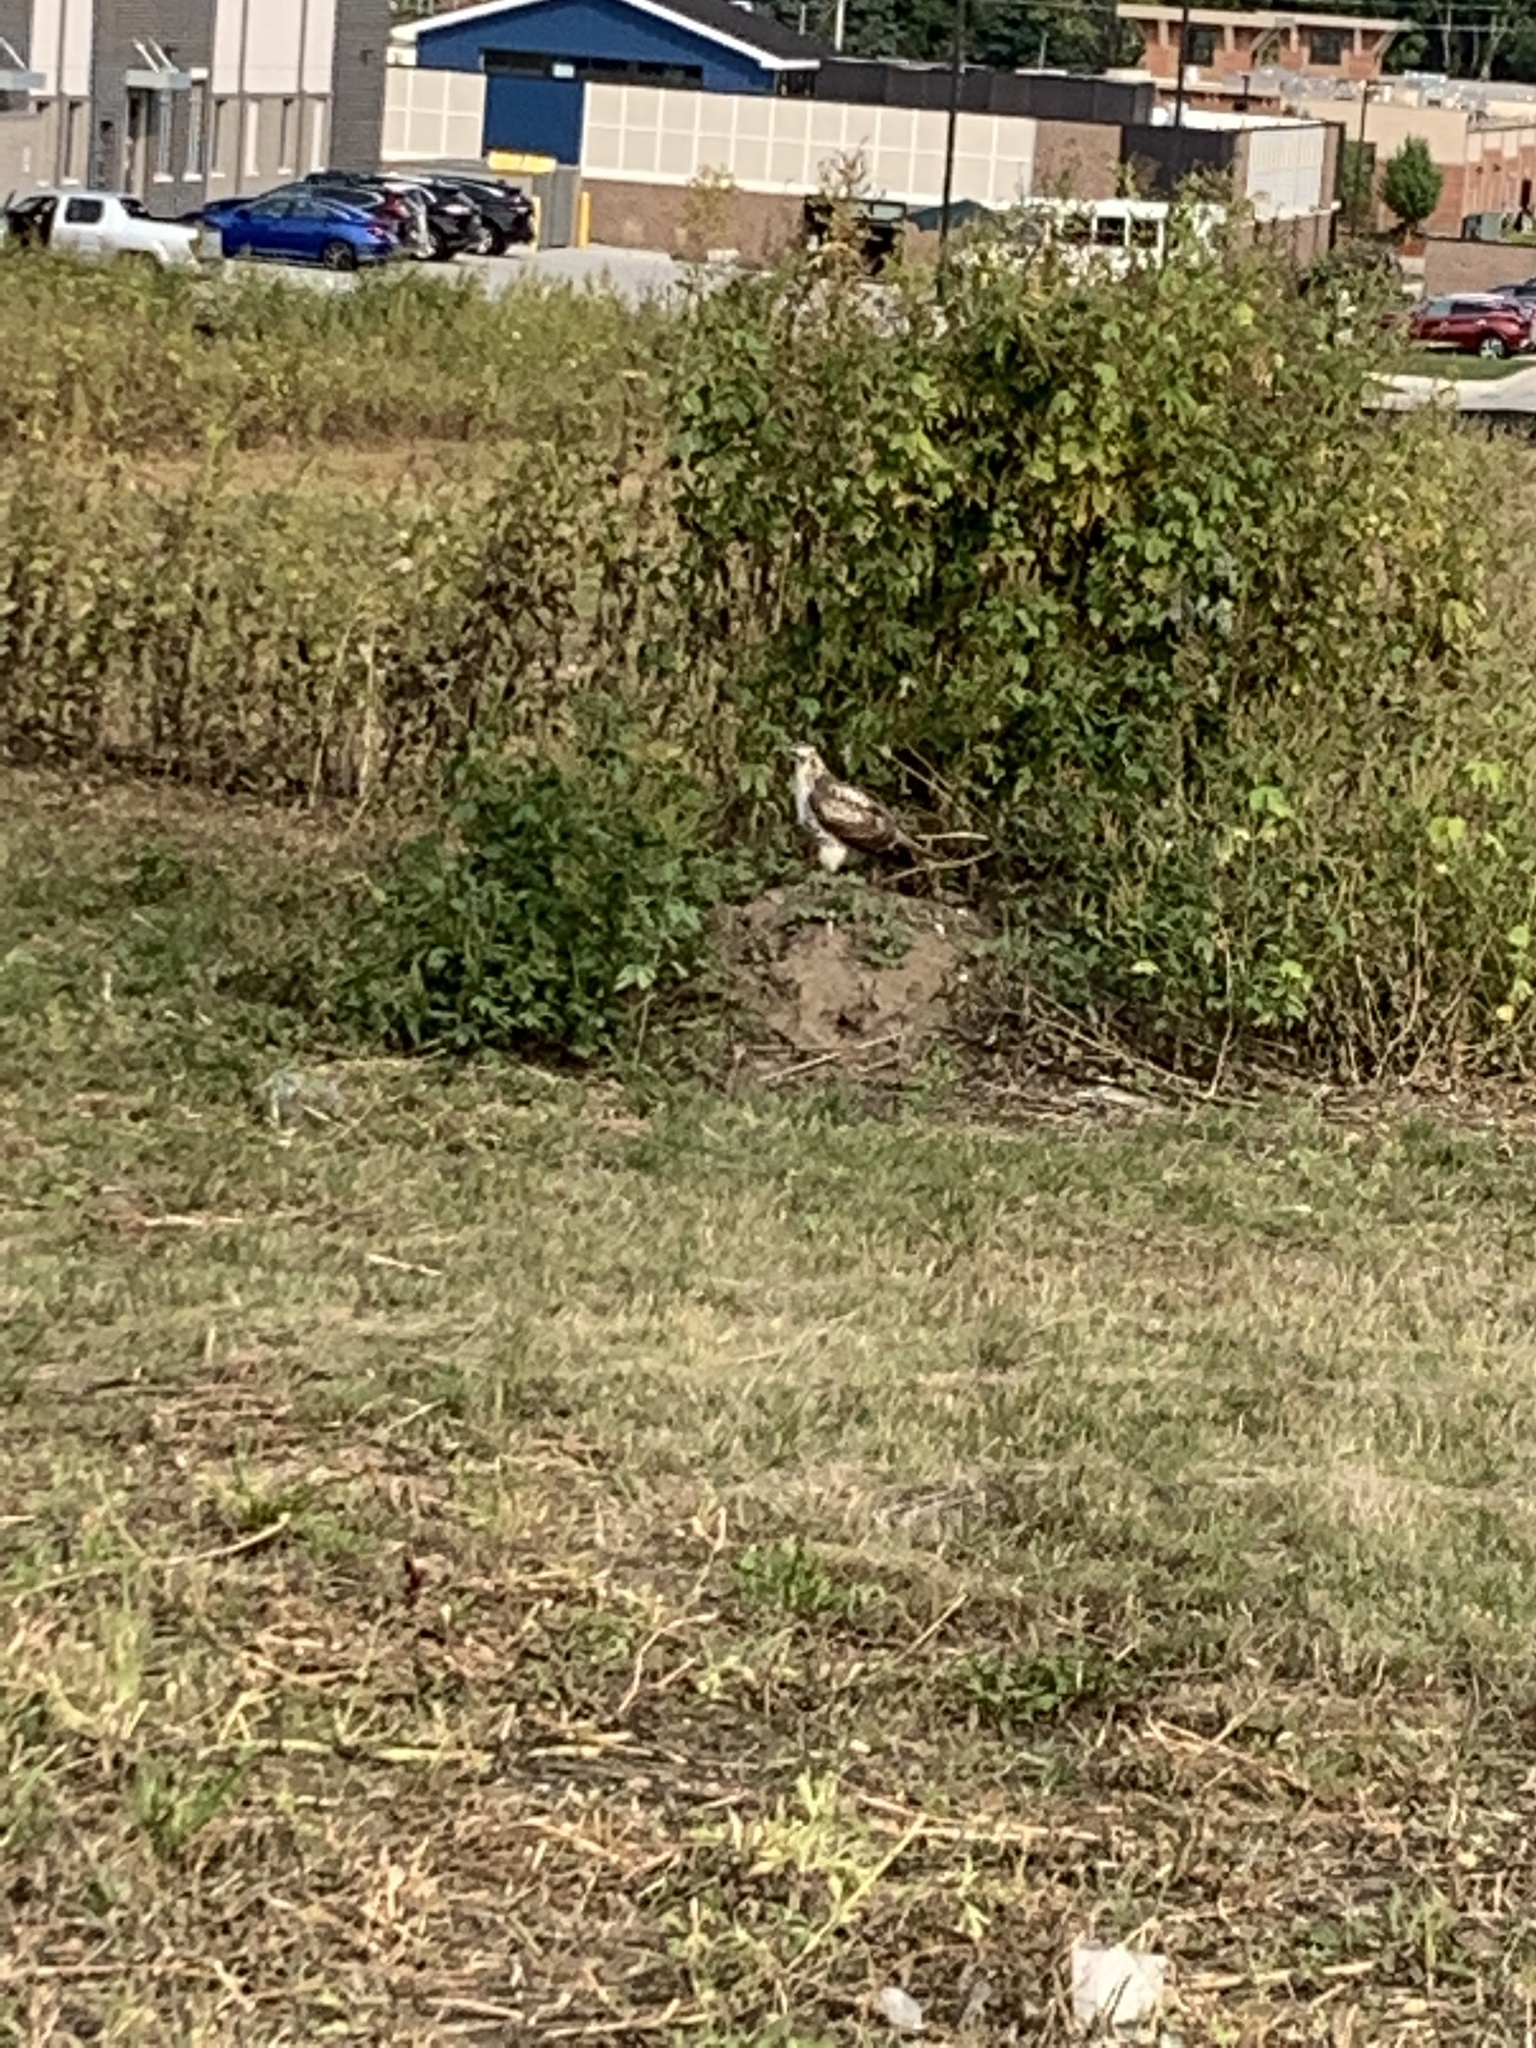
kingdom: Animalia
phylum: Chordata
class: Aves
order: Accipitriformes
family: Accipitridae
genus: Buteo
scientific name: Buteo jamaicensis
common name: Red-tailed hawk
